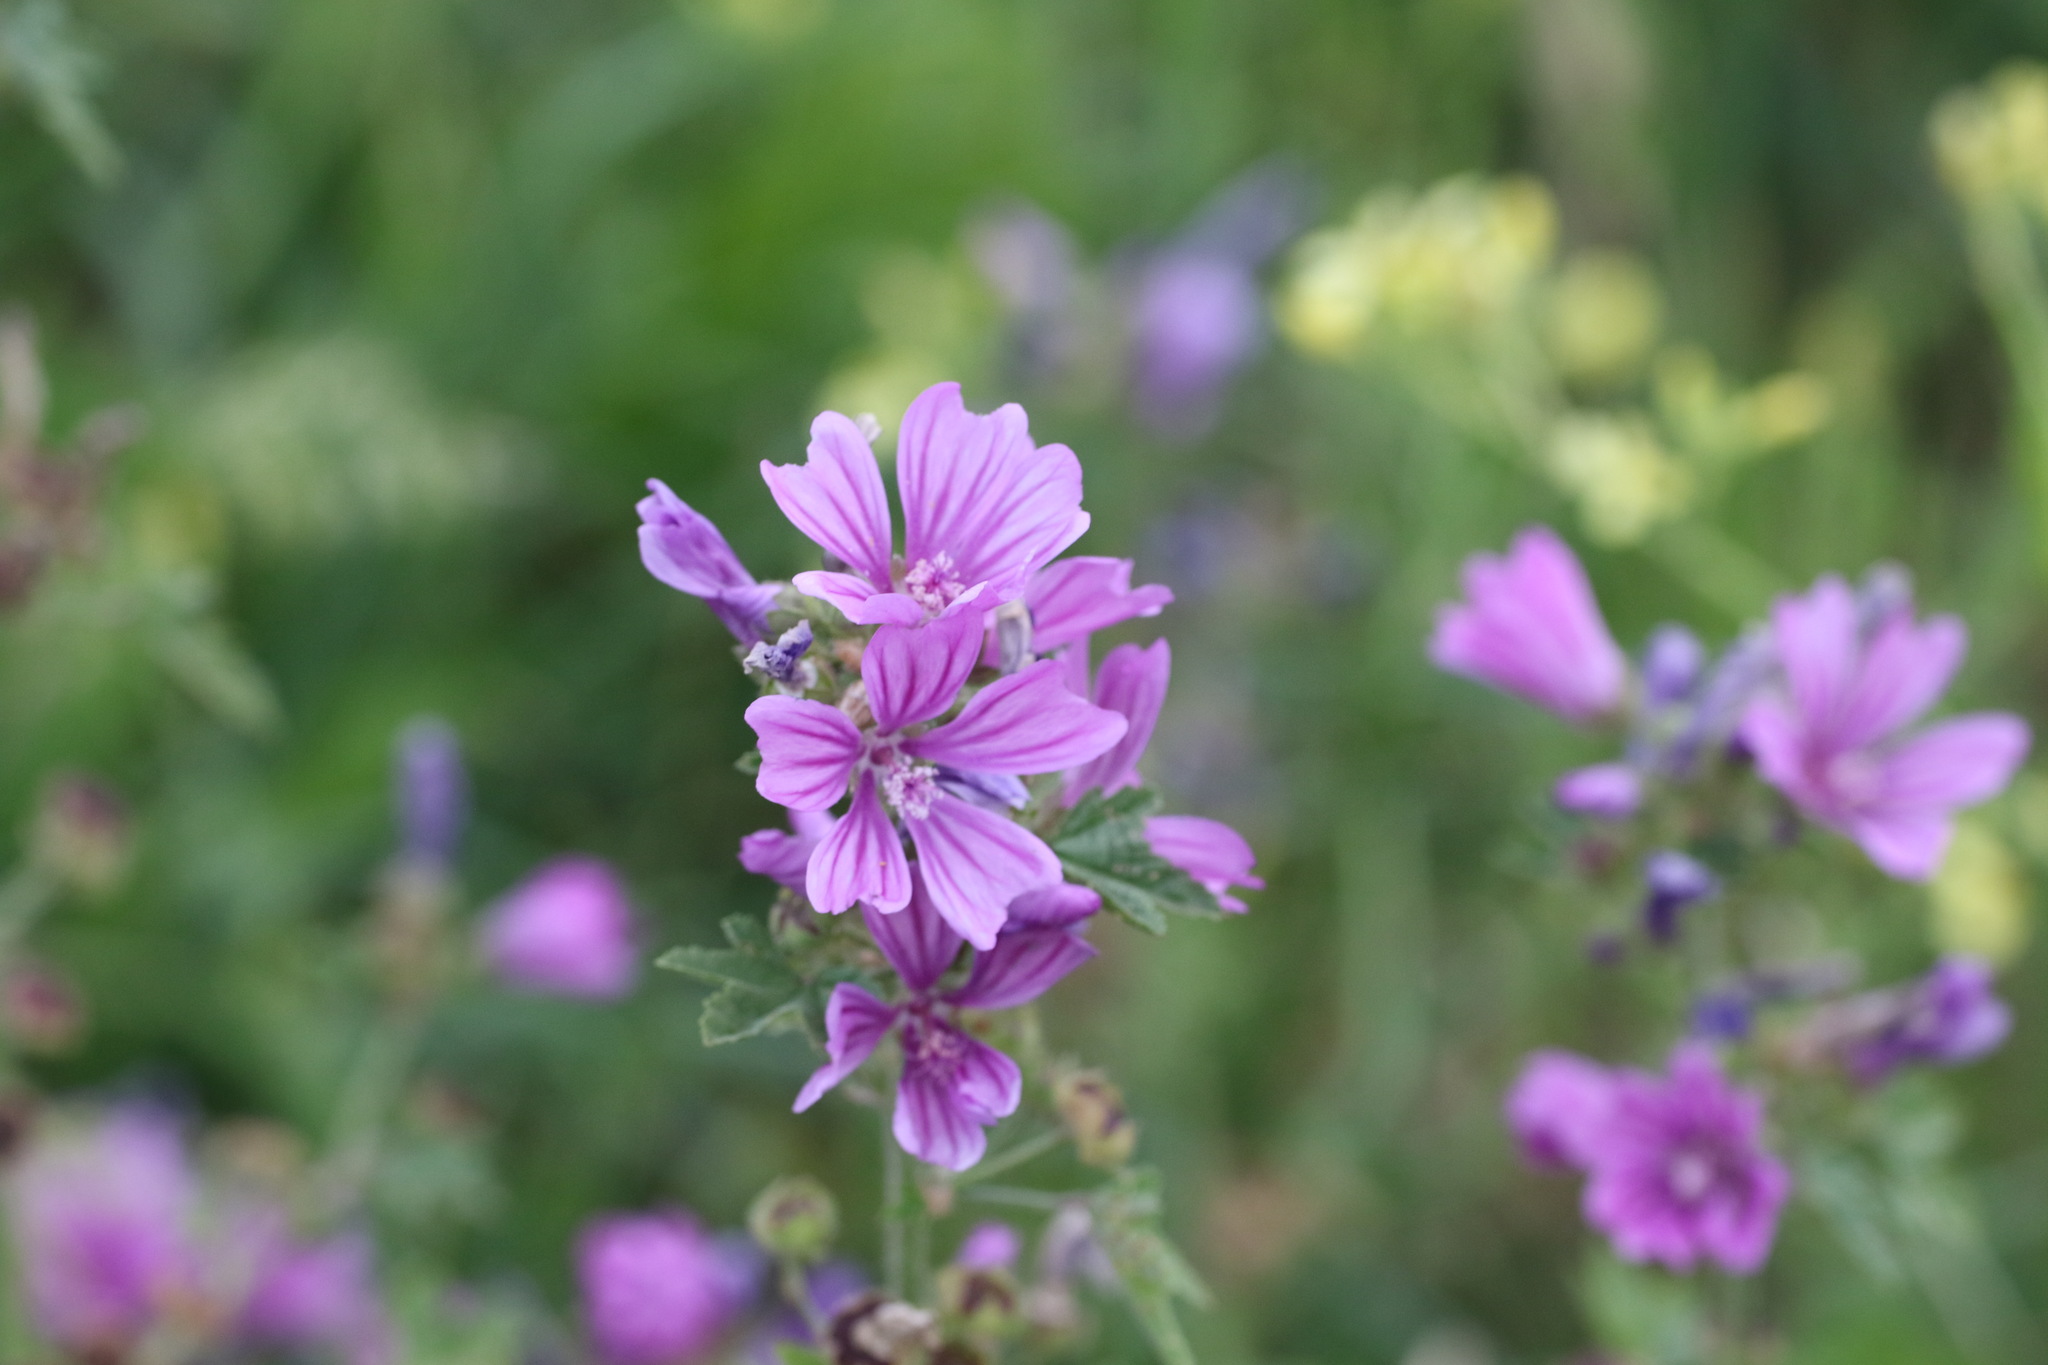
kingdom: Plantae
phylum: Tracheophyta
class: Magnoliopsida
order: Malvales
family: Malvaceae
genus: Malva
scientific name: Malva sylvestris
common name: Common mallow
